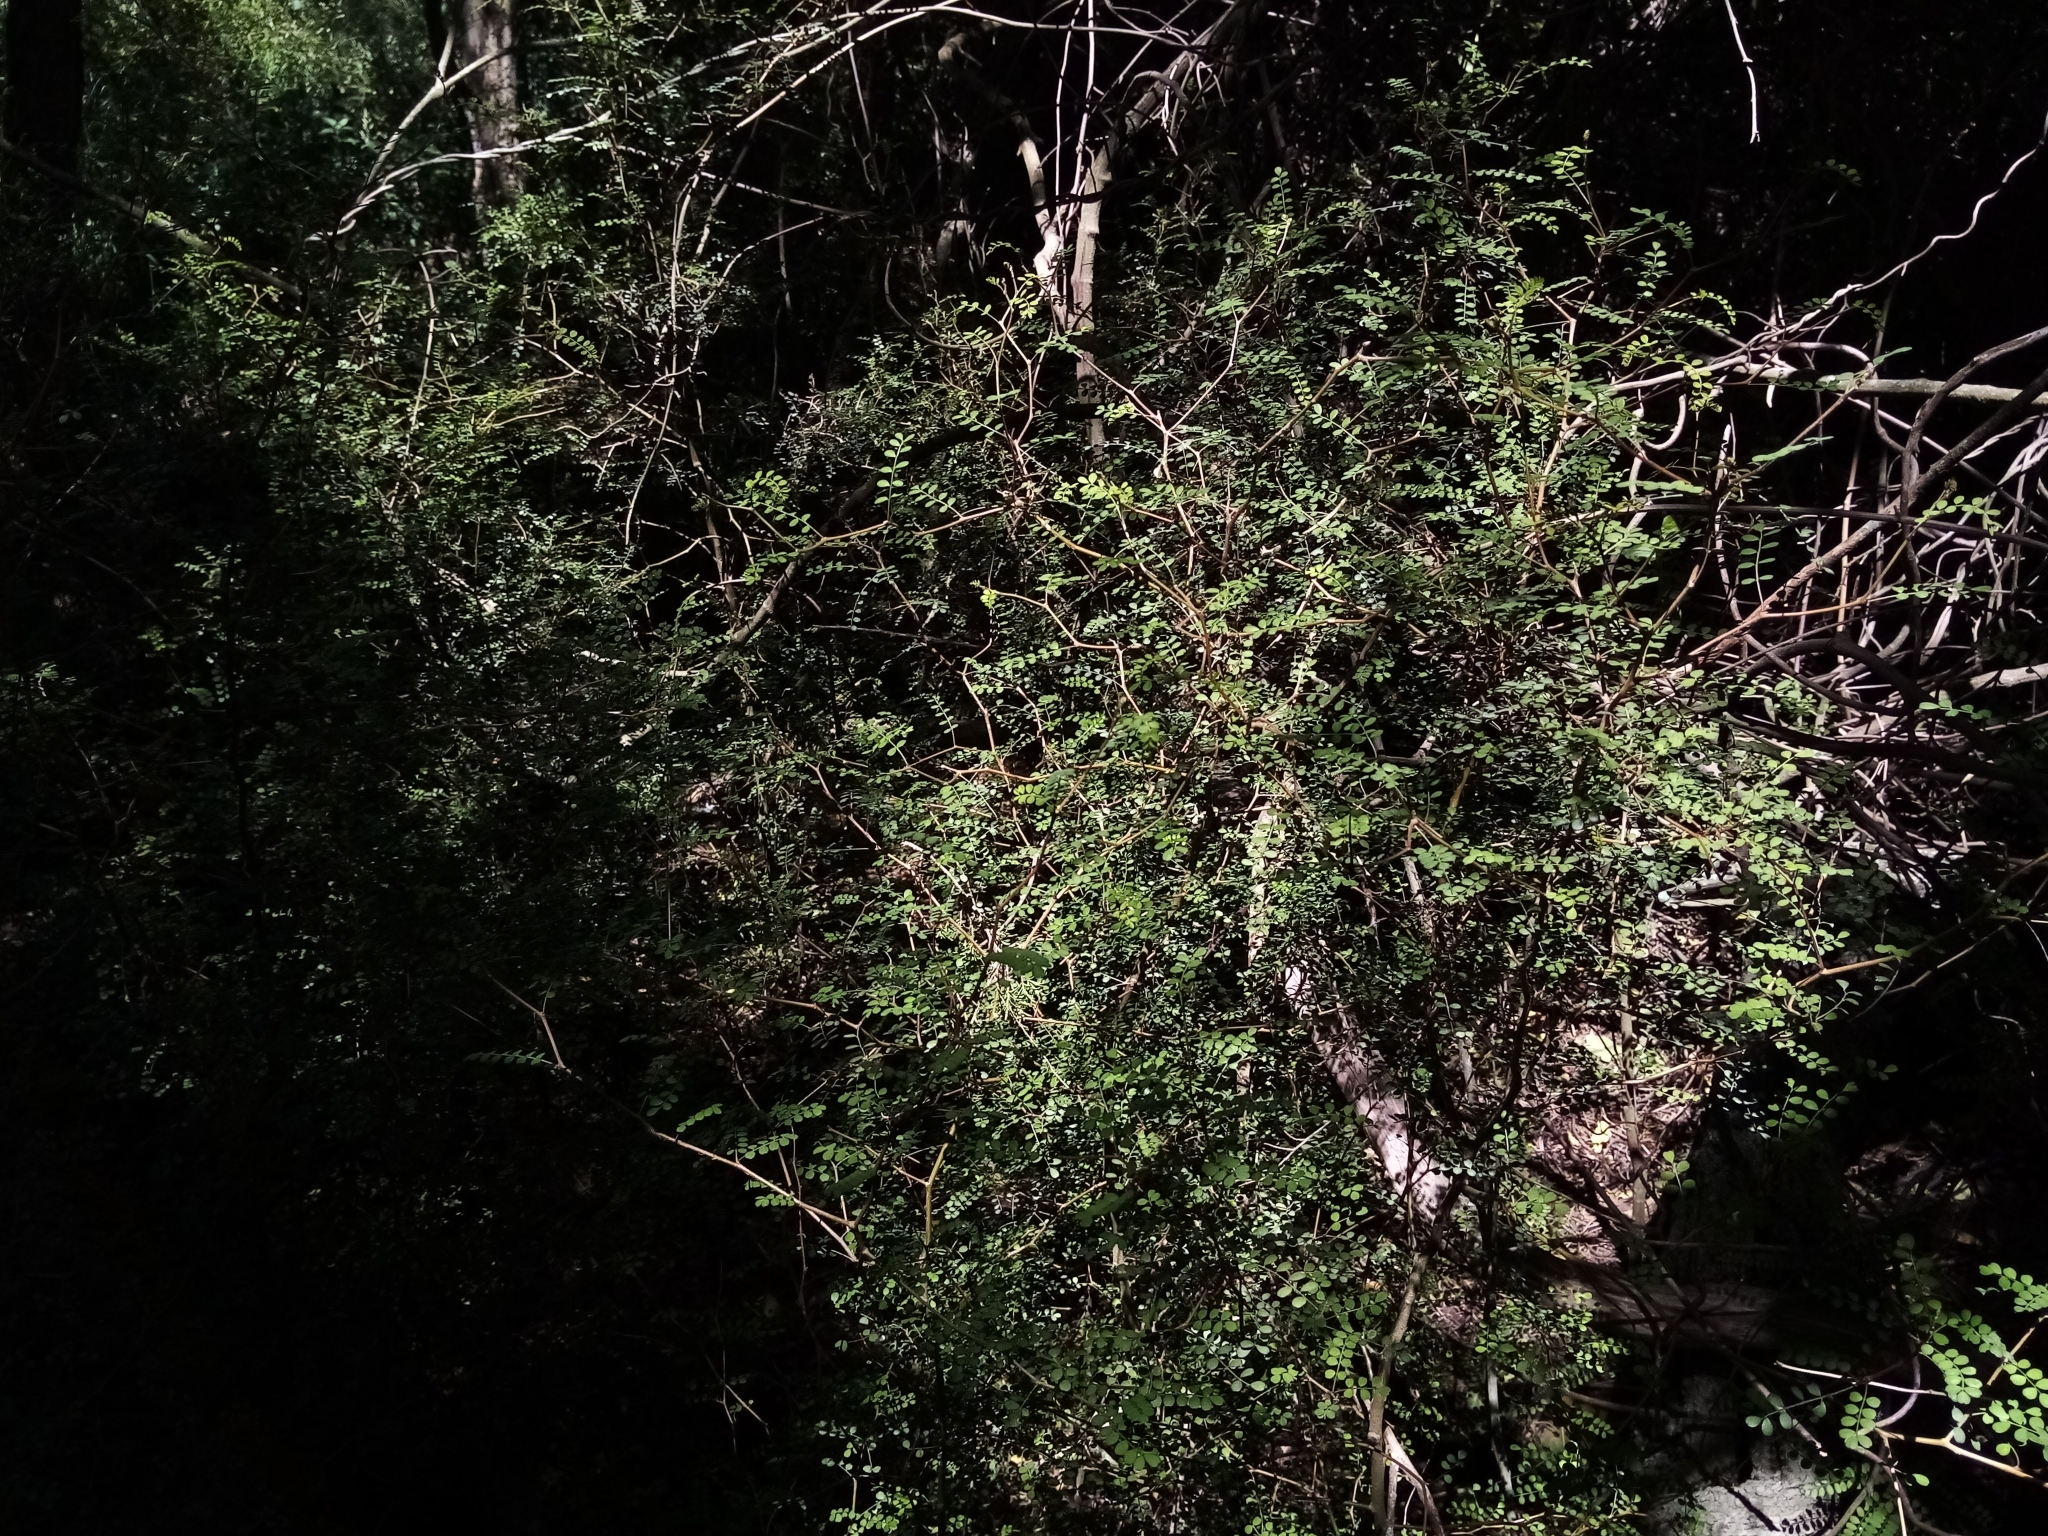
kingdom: Plantae
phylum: Tracheophyta
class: Magnoliopsida
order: Fabales
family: Fabaceae
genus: Sophora
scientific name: Sophora microphylla
